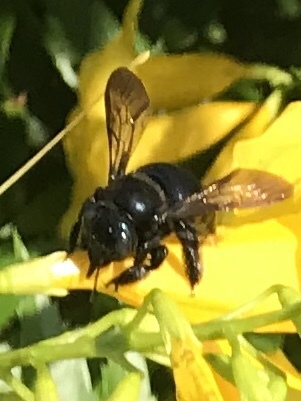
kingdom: Animalia
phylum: Arthropoda
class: Insecta
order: Hymenoptera
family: Apidae
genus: Xylocopa
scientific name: Xylocopa micans
